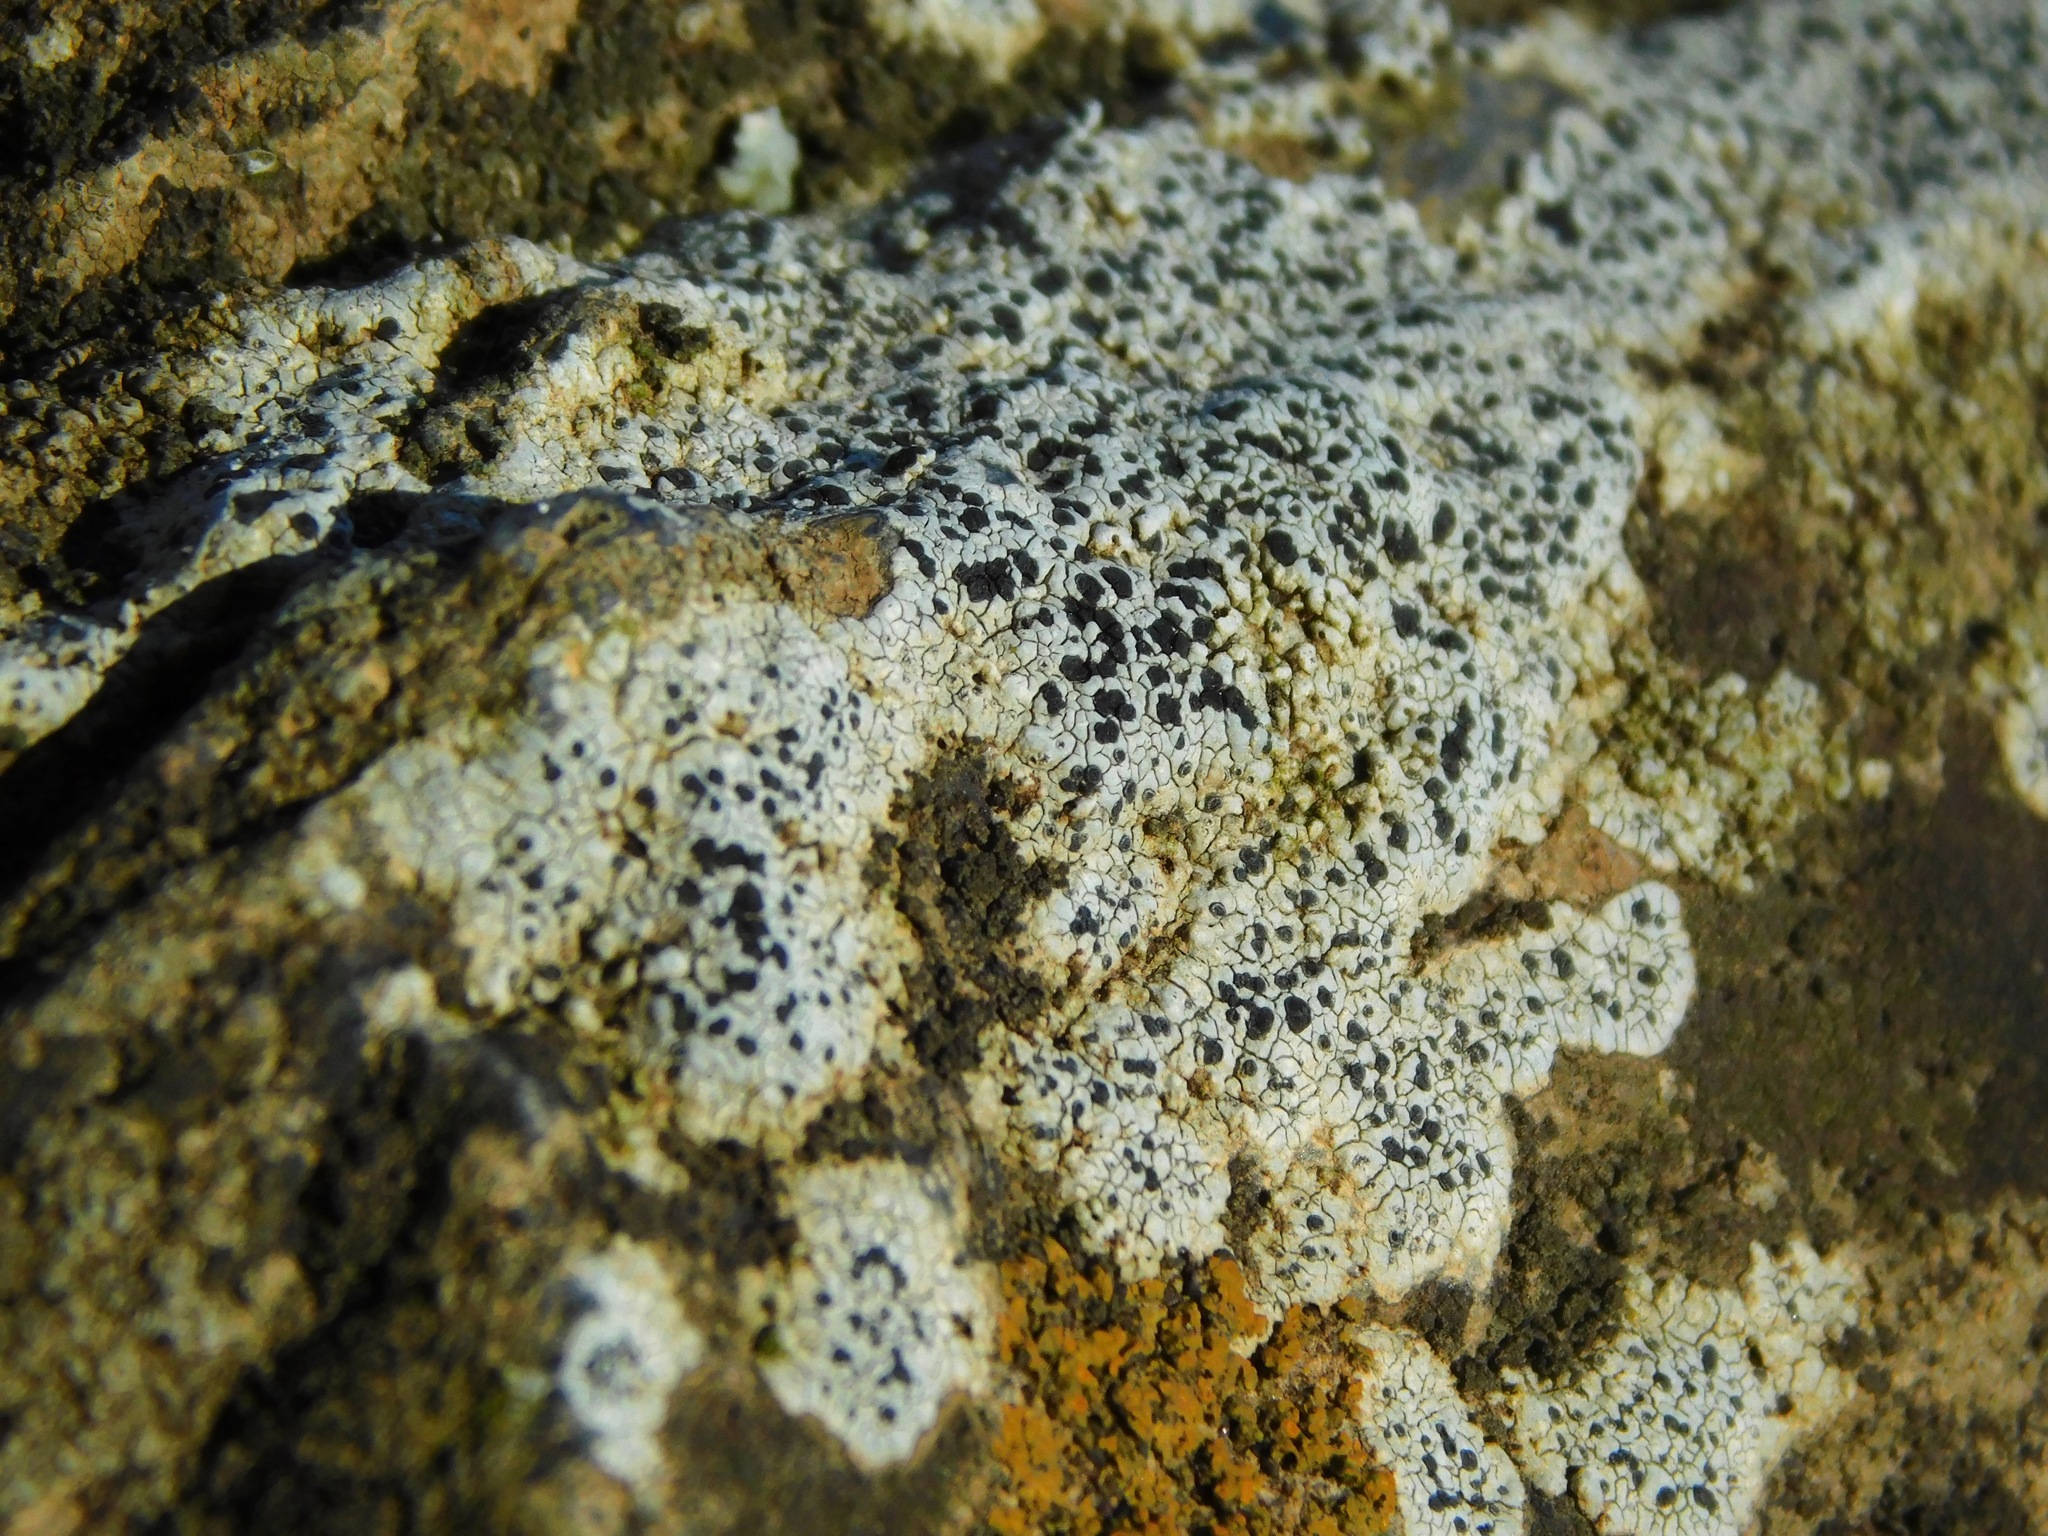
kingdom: Fungi
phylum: Ascomycota
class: Lecanoromycetes
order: Lecanorales
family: Lecanoraceae
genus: Lecanora
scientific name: Lecanora oreinoides
